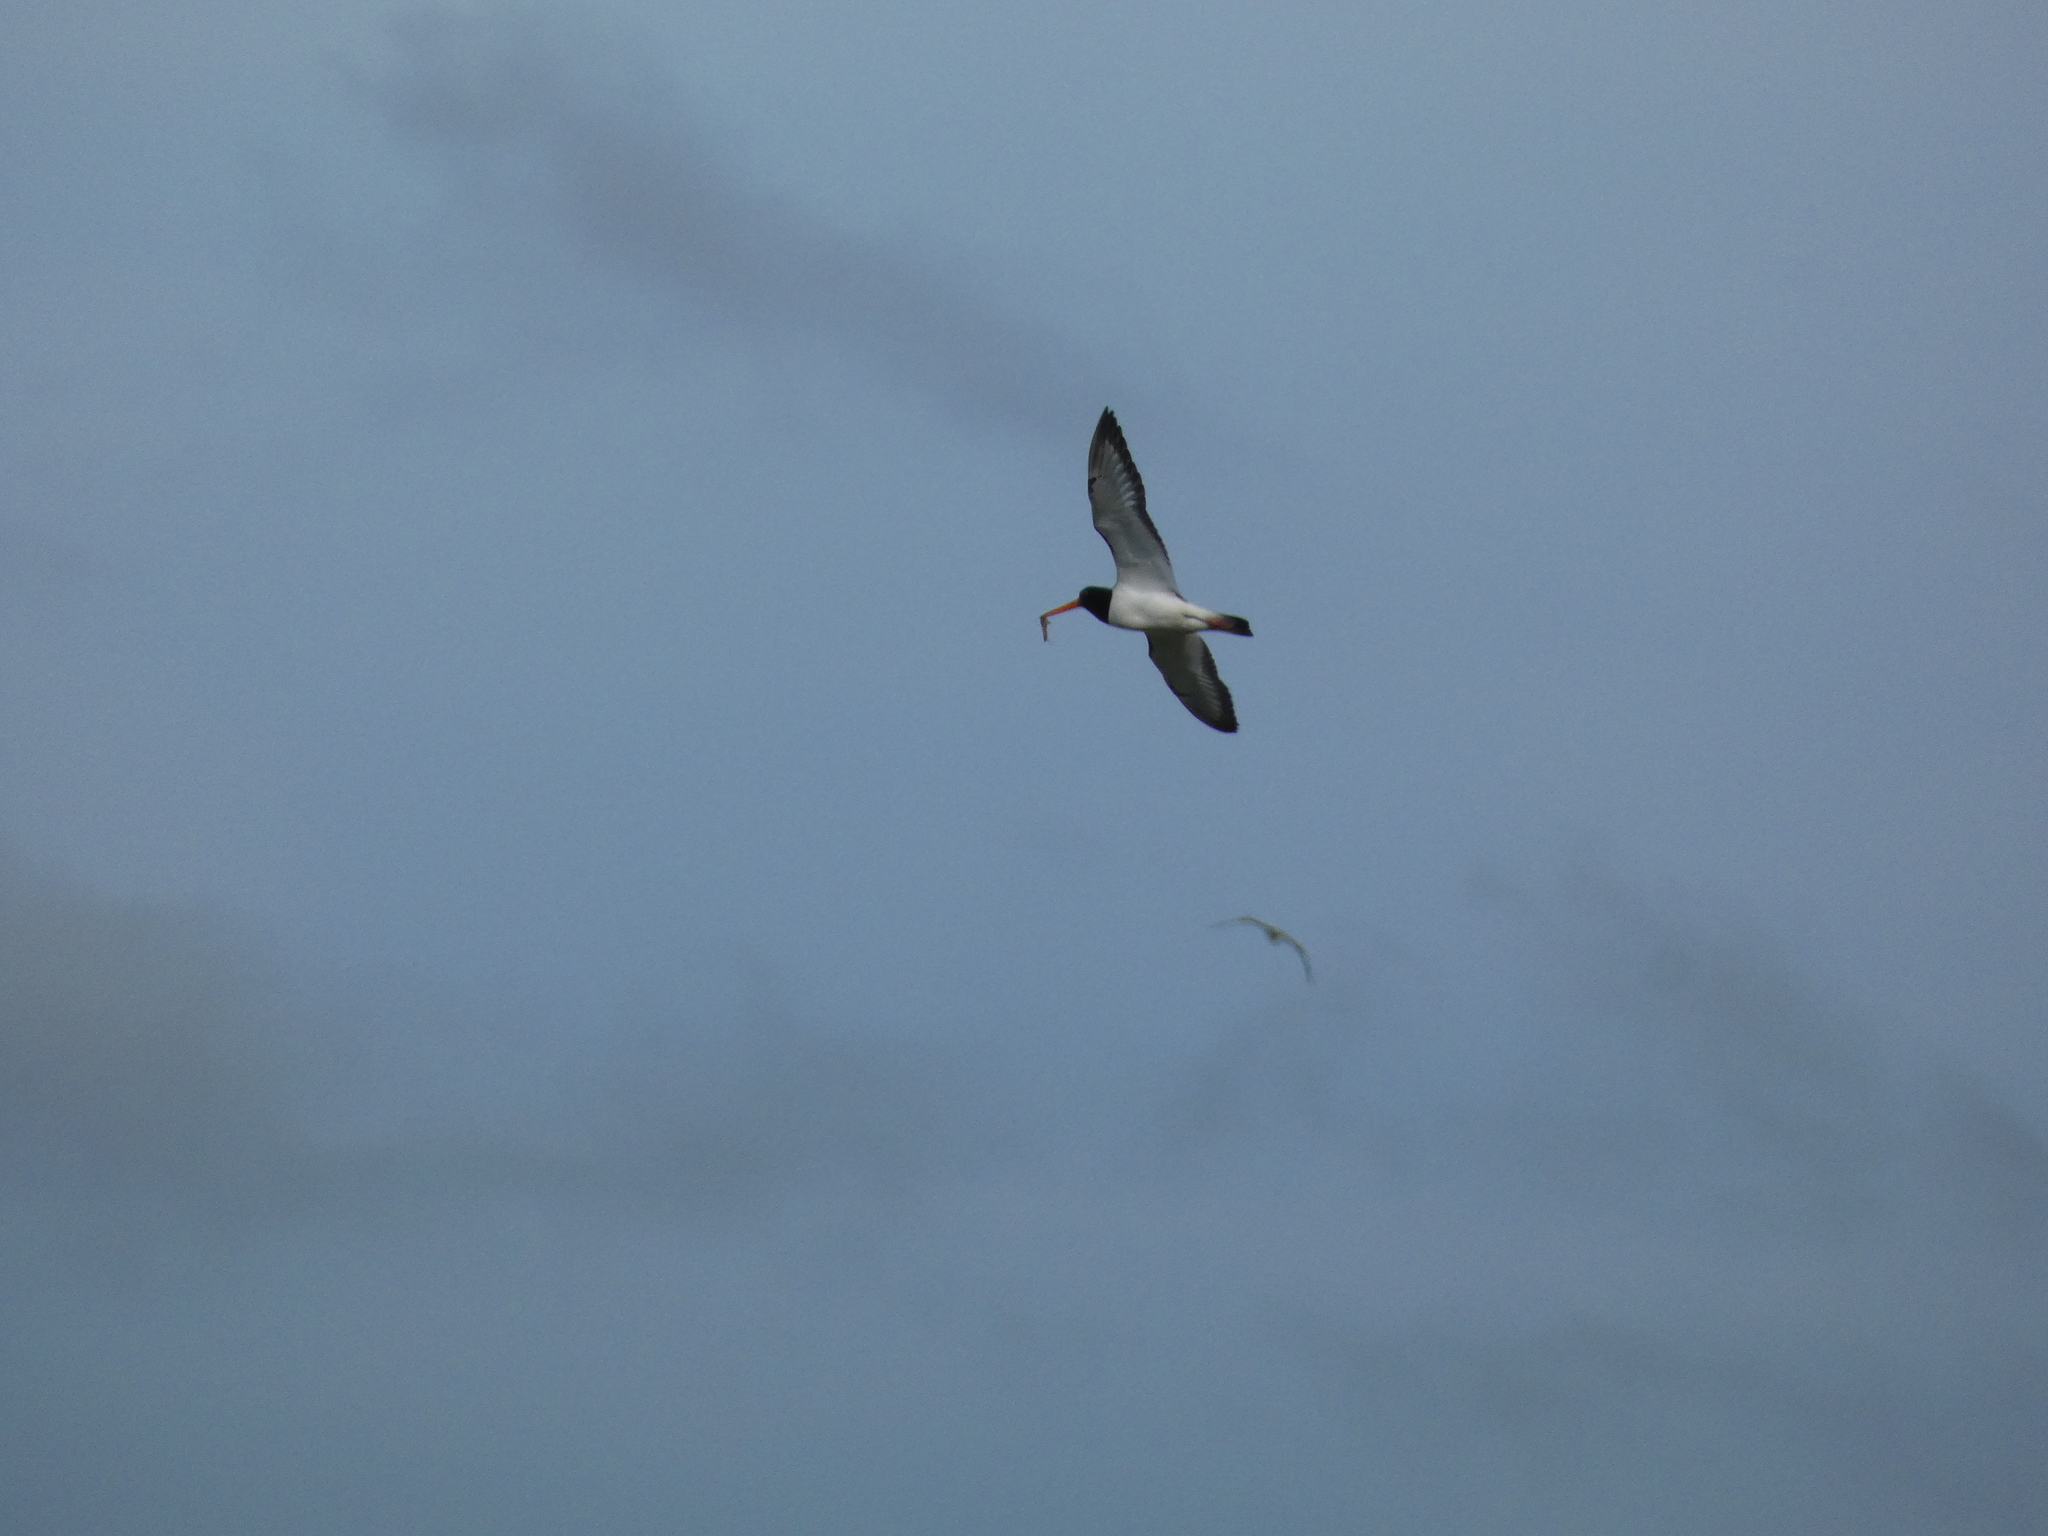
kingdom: Animalia
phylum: Chordata
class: Aves
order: Charadriiformes
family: Haematopodidae
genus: Haematopus
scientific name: Haematopus ostralegus
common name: Eurasian oystercatcher
